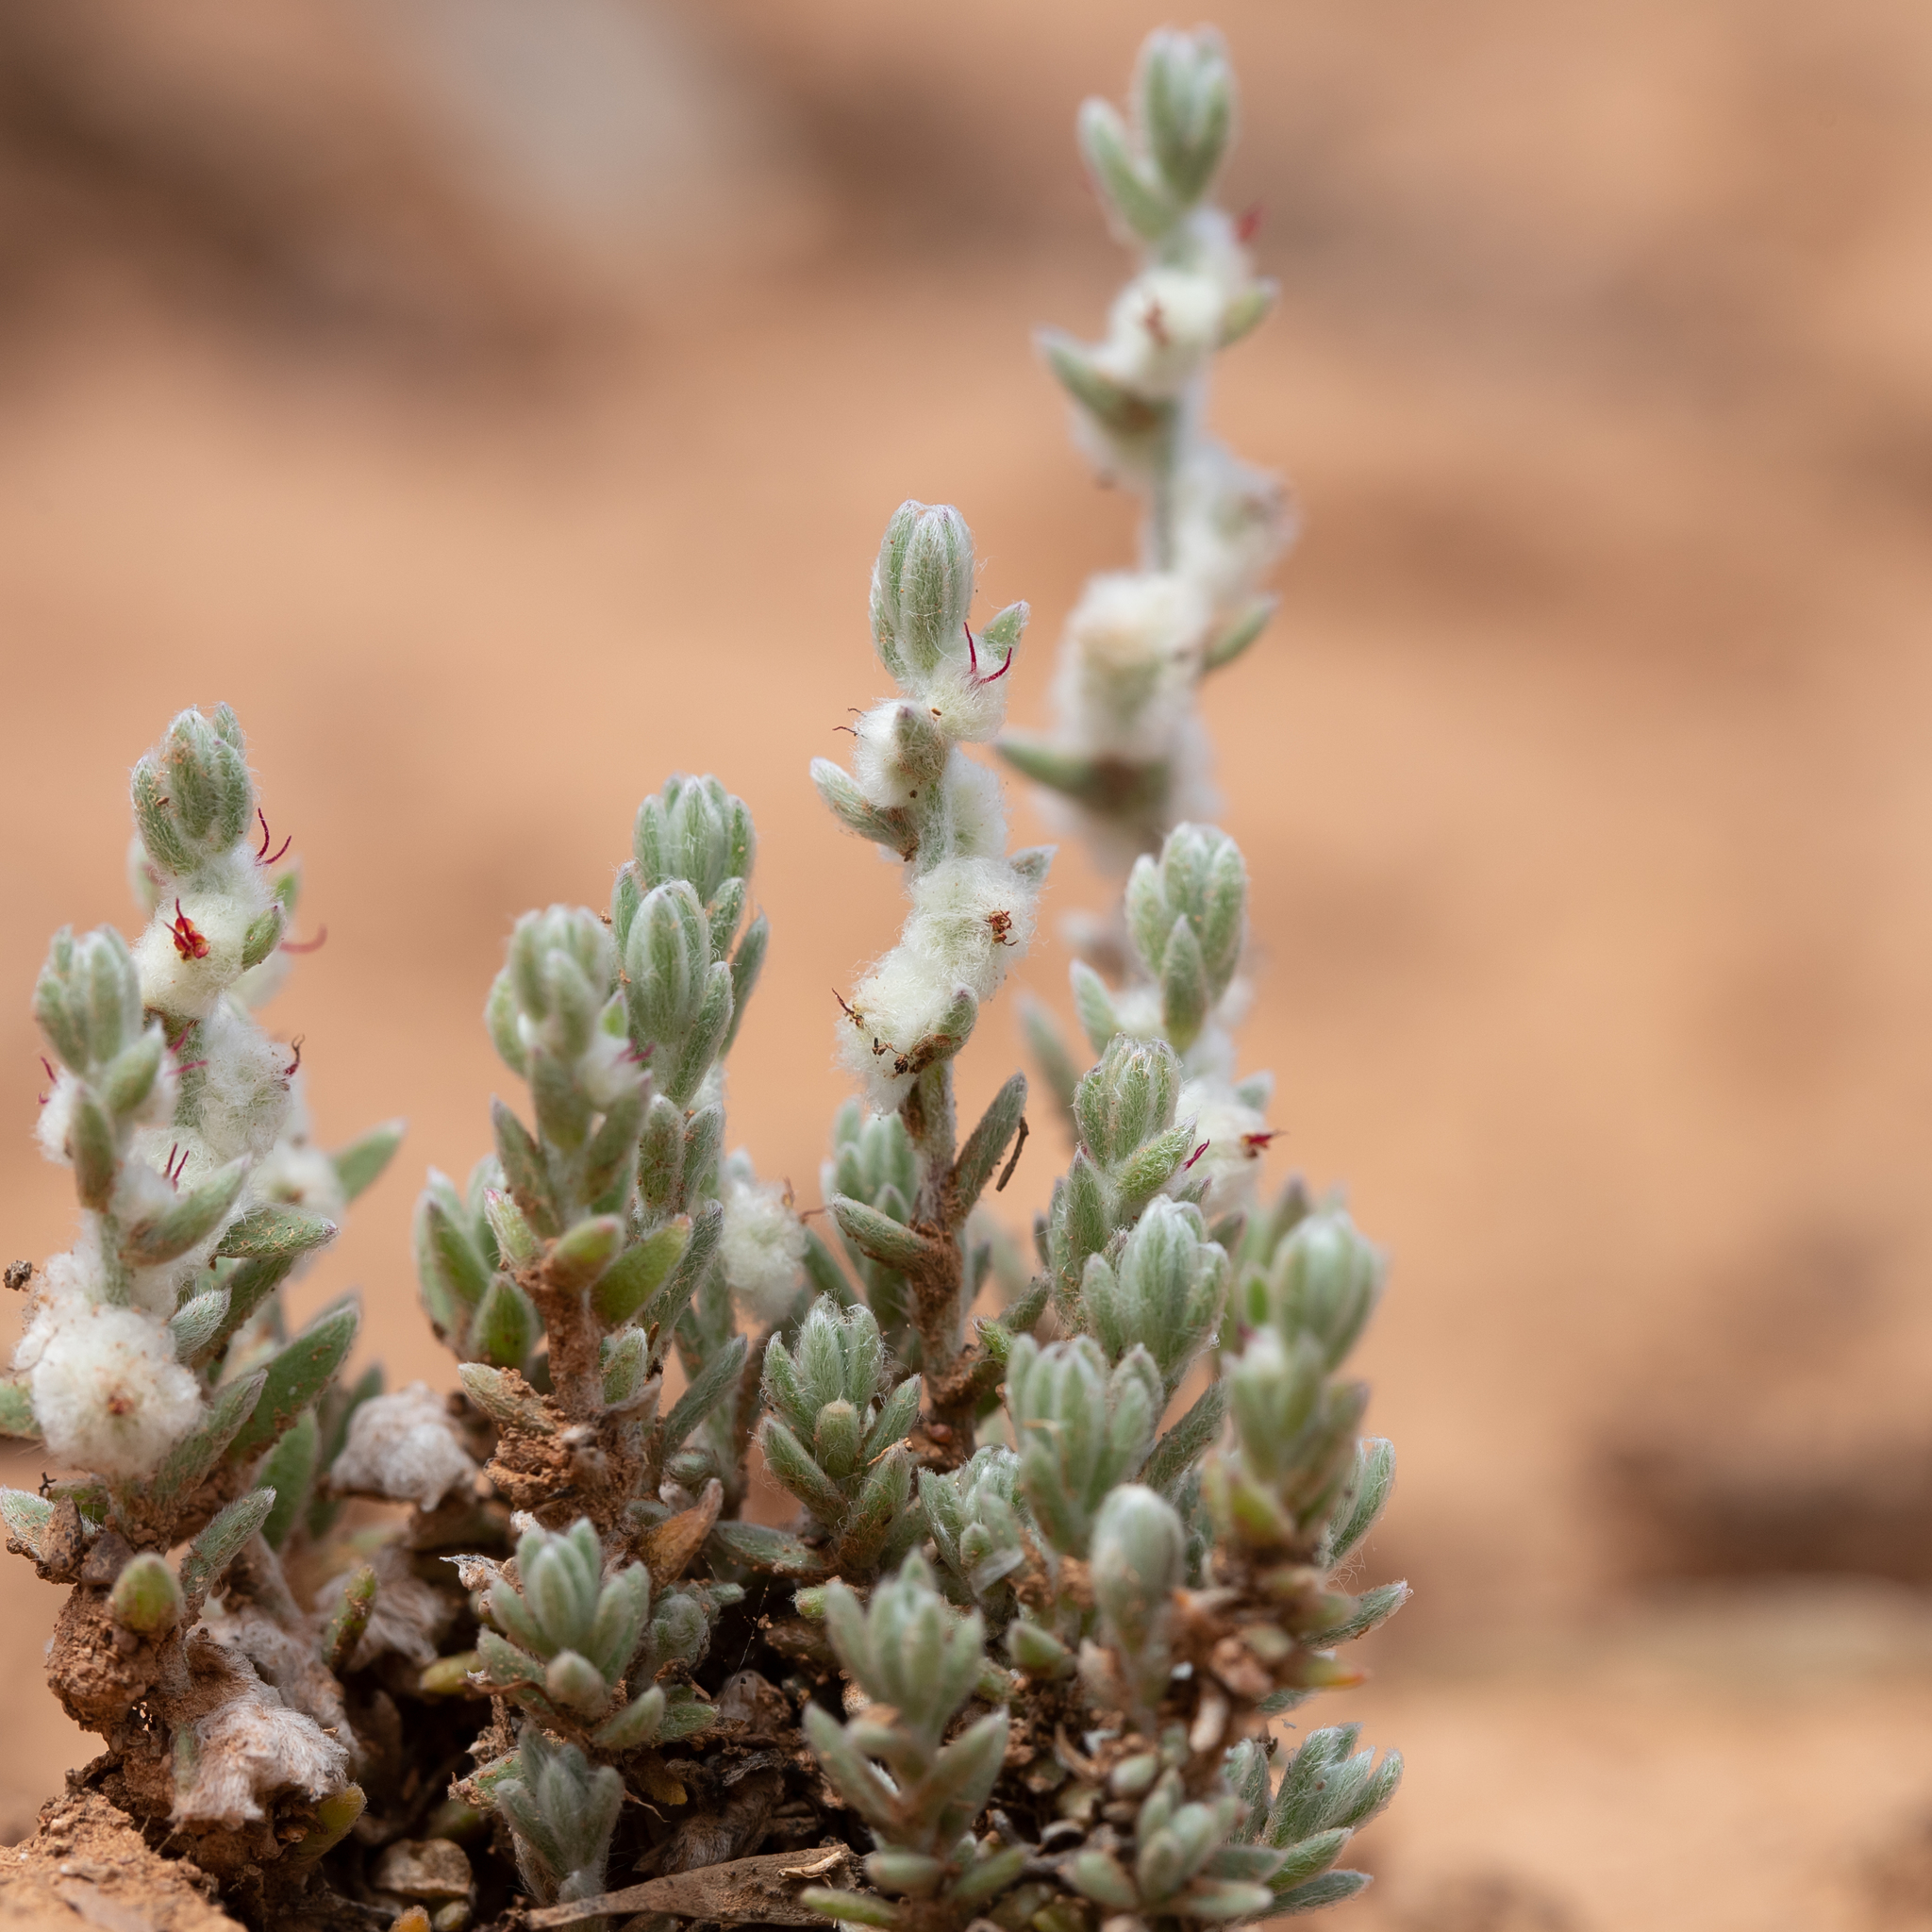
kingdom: Plantae
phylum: Tracheophyta
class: Magnoliopsida
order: Caryophyllales
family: Amaranthaceae
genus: Maireana
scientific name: Maireana sclerolaenoides
